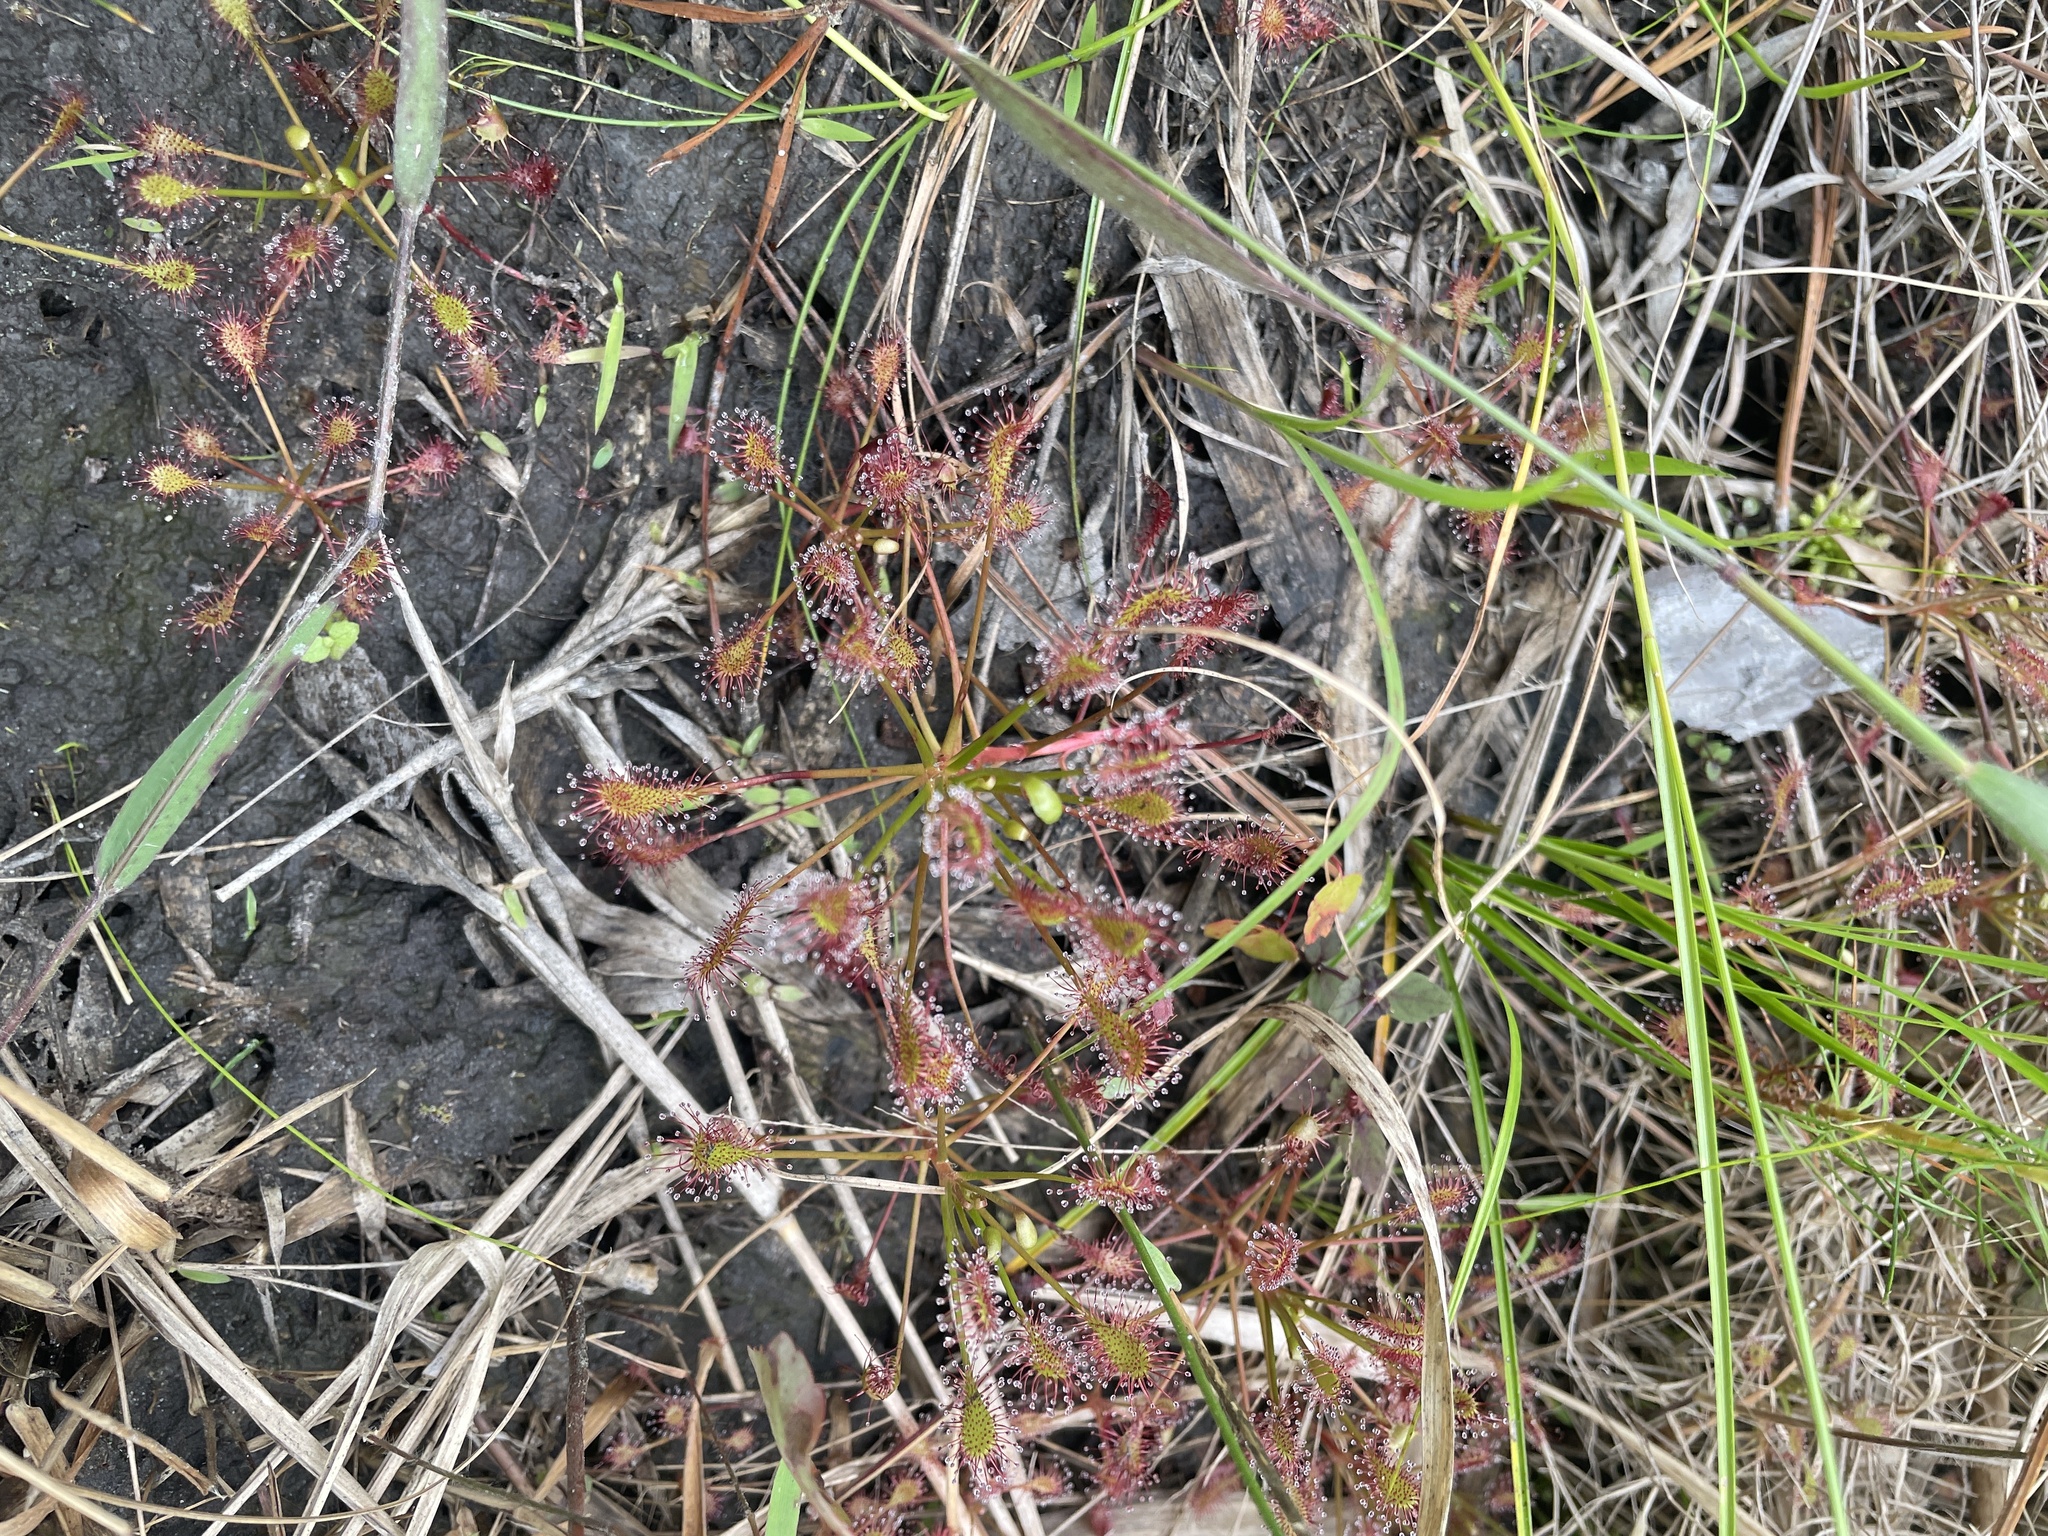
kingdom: Plantae
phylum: Tracheophyta
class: Magnoliopsida
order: Caryophyllales
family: Droseraceae
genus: Drosera
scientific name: Drosera intermedia
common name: Oblong-leaved sundew
